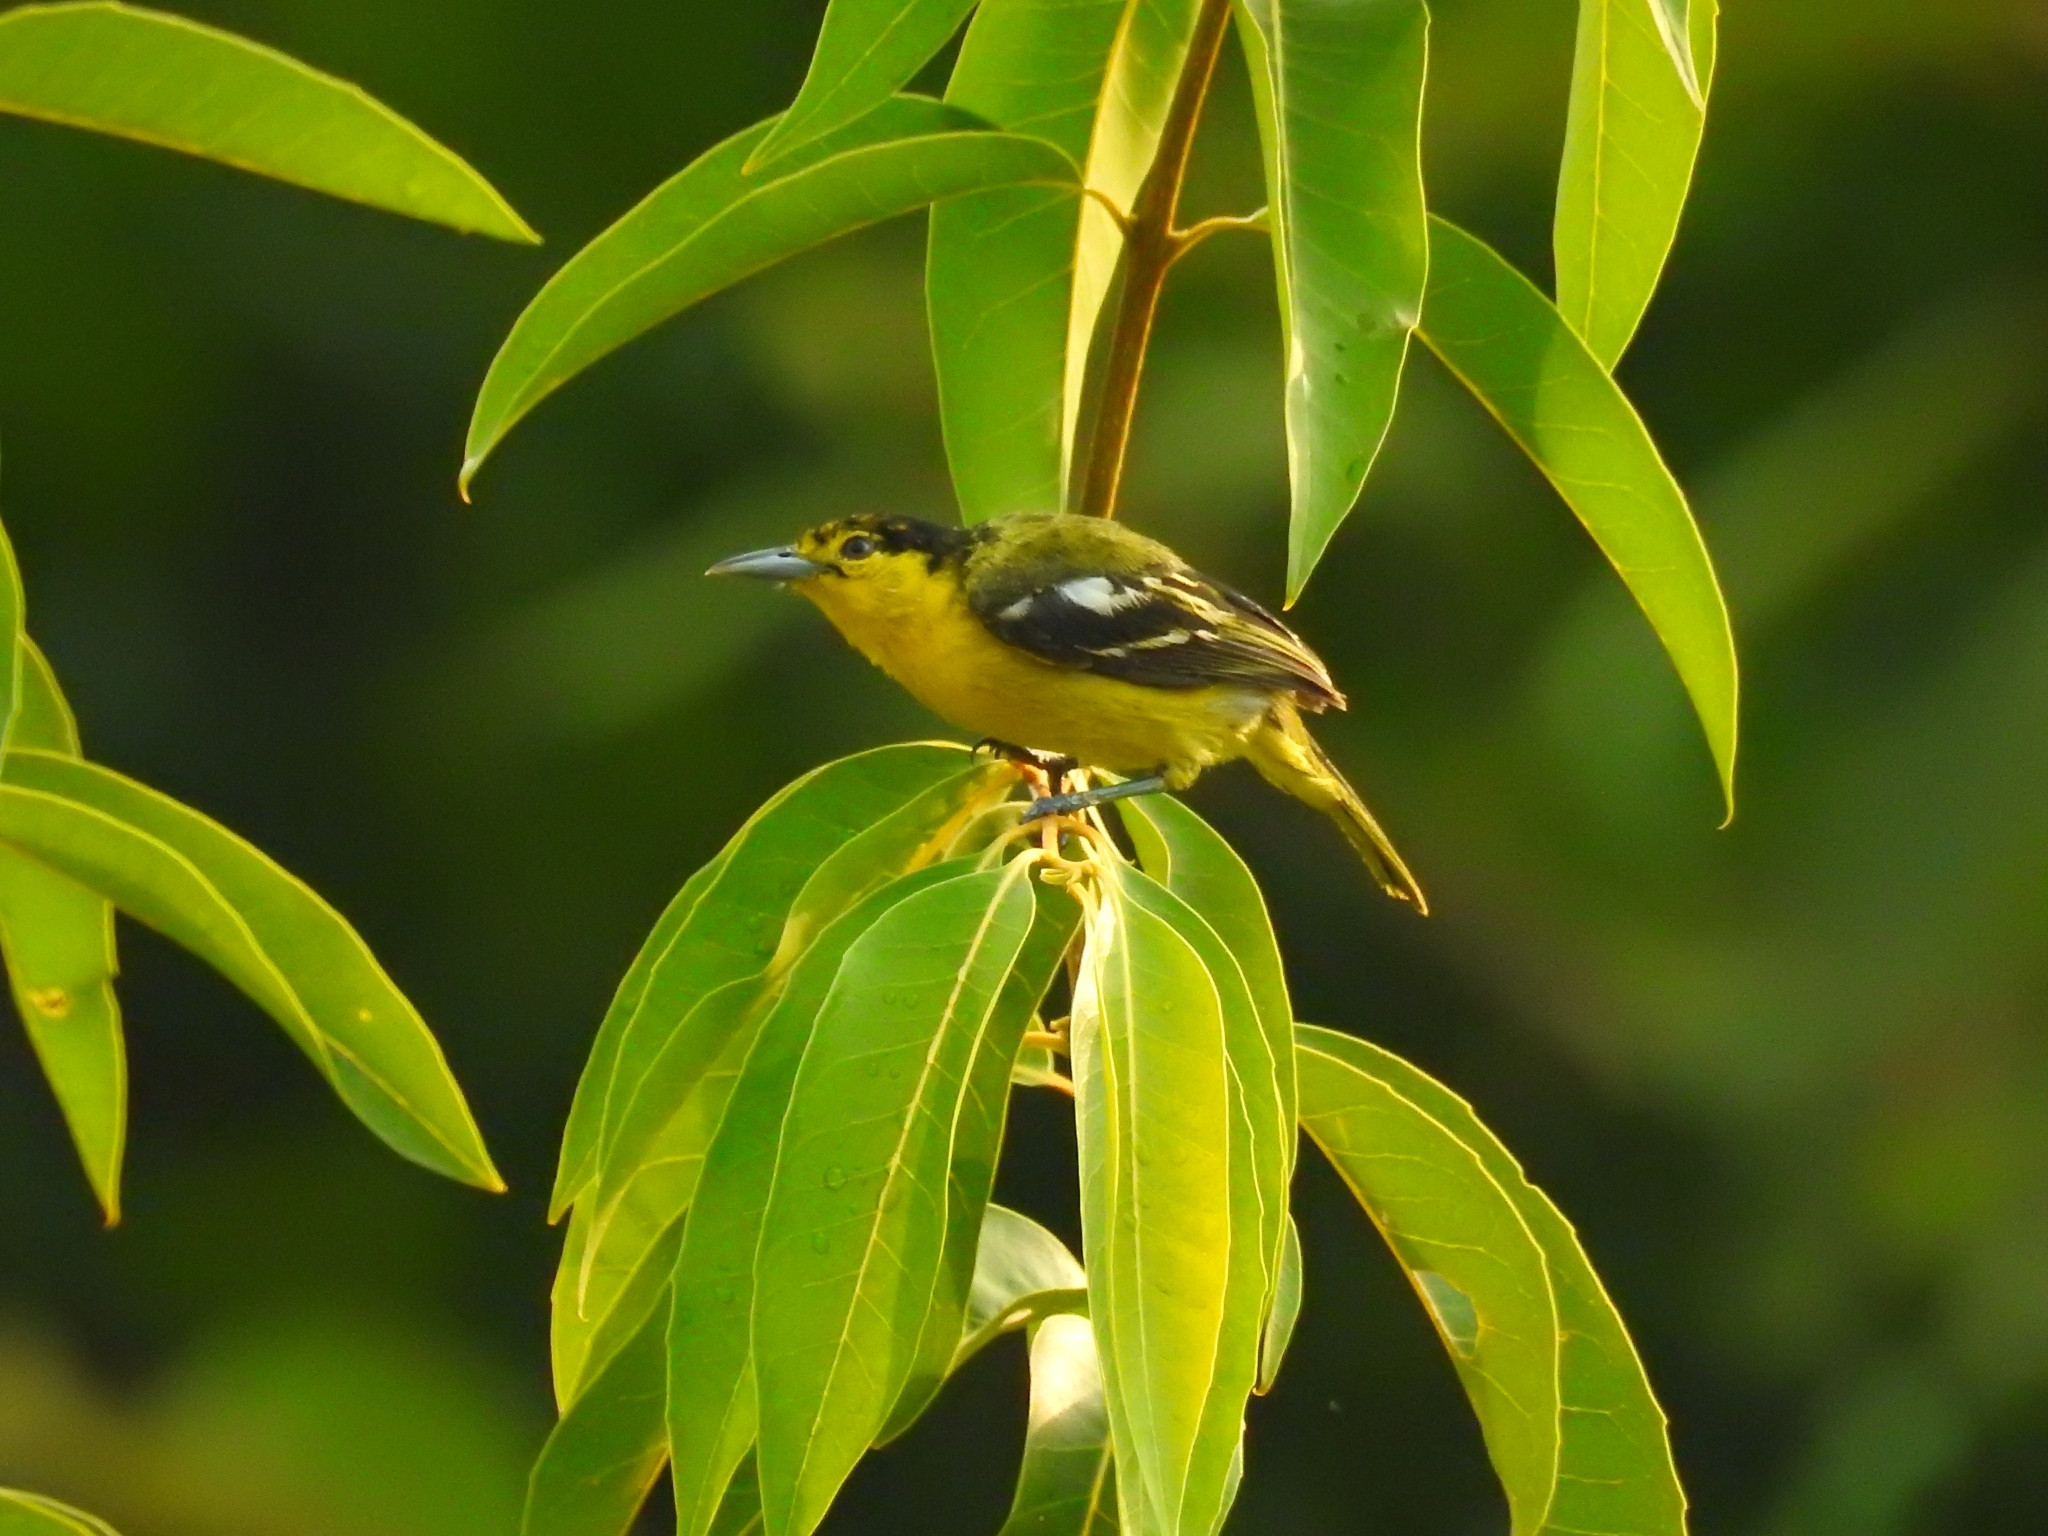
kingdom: Animalia
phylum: Chordata
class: Aves
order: Passeriformes
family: Aegithinidae
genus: Aegithina
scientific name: Aegithina tiphia
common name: Common iora
